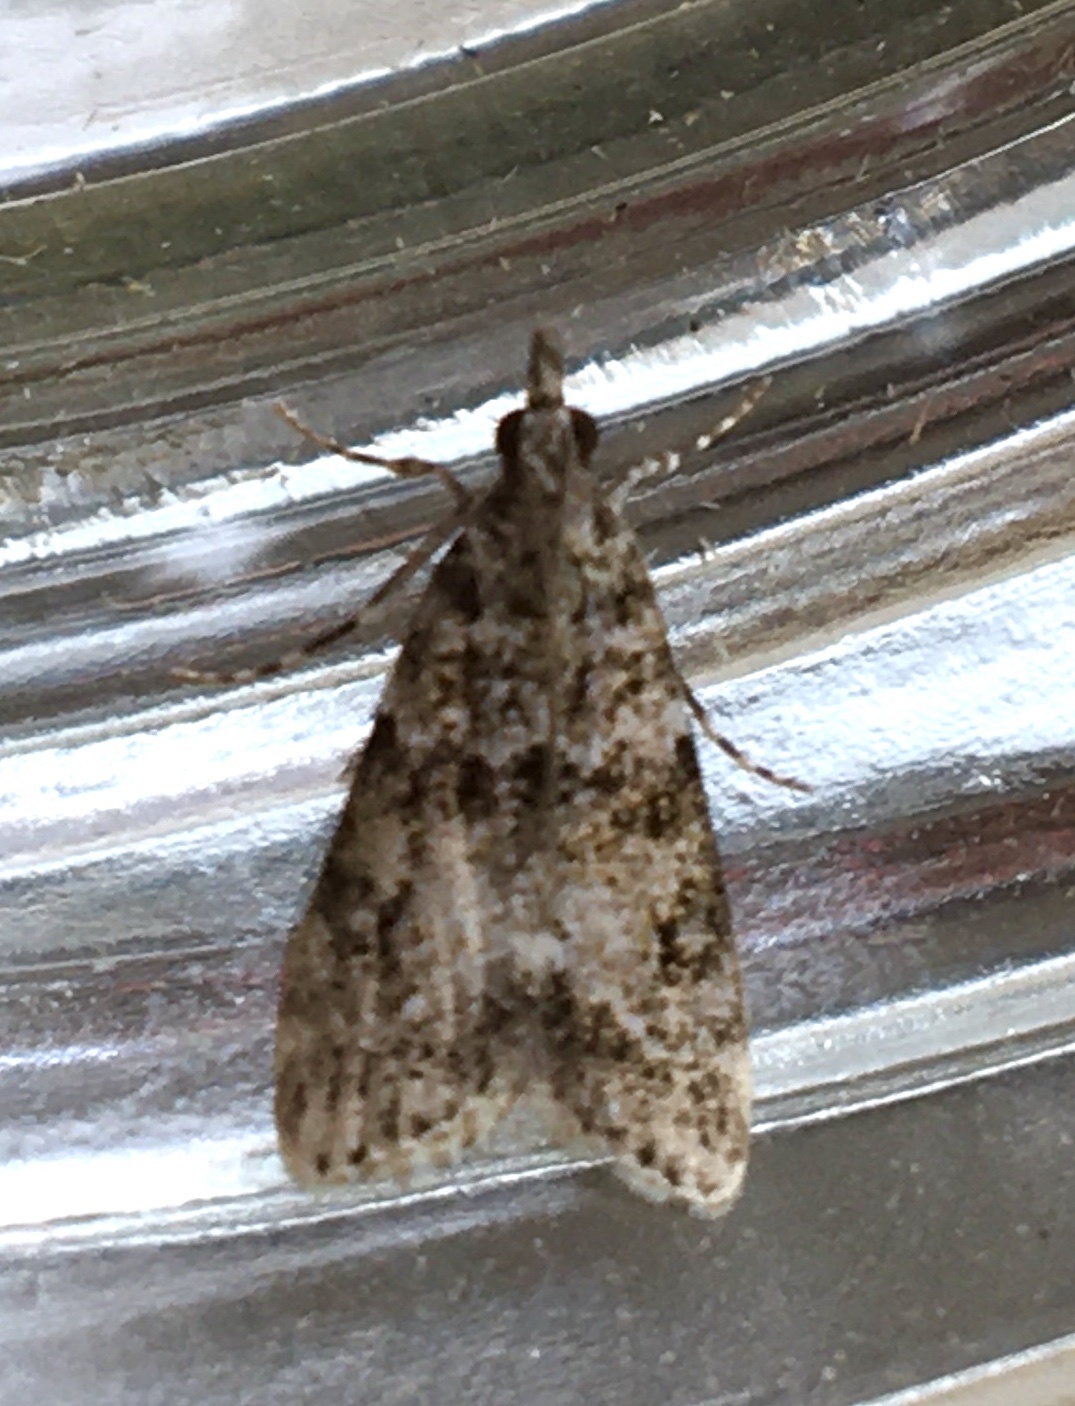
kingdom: Animalia
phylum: Arthropoda
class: Insecta
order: Lepidoptera
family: Crambidae
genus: Eudonia
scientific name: Eudonia lacustrata
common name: Little grey
